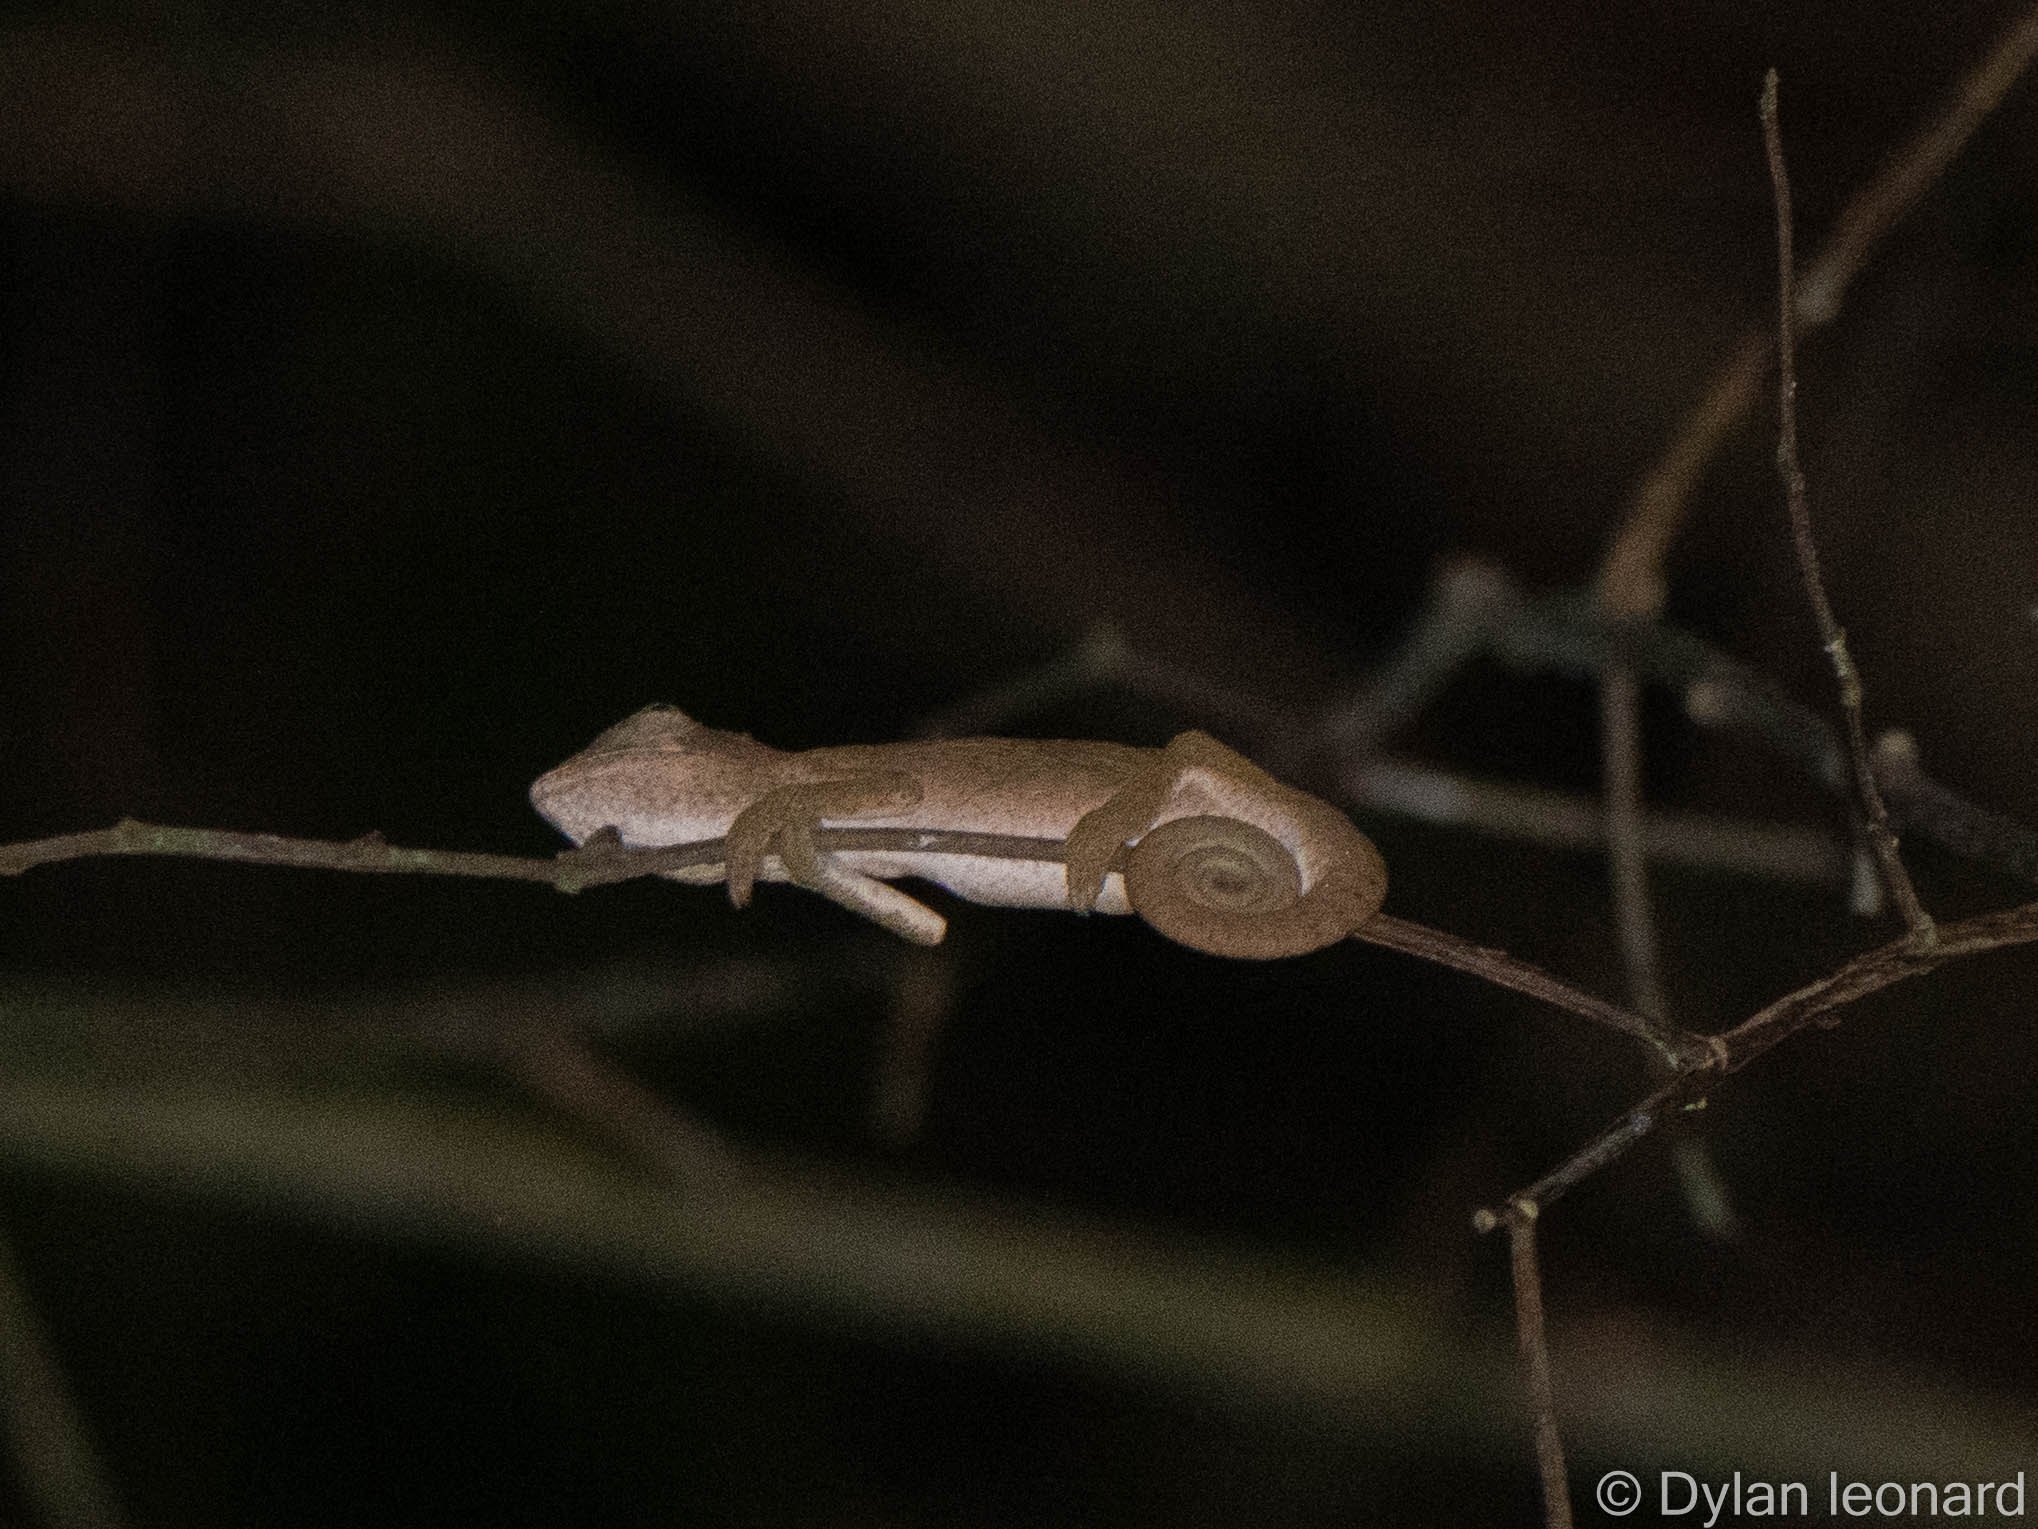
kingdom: Animalia
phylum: Chordata
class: Squamata
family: Chamaeleonidae
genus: Bradypodion
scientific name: Bradypodion setaroi
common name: Setaro's dwarf chameleon
